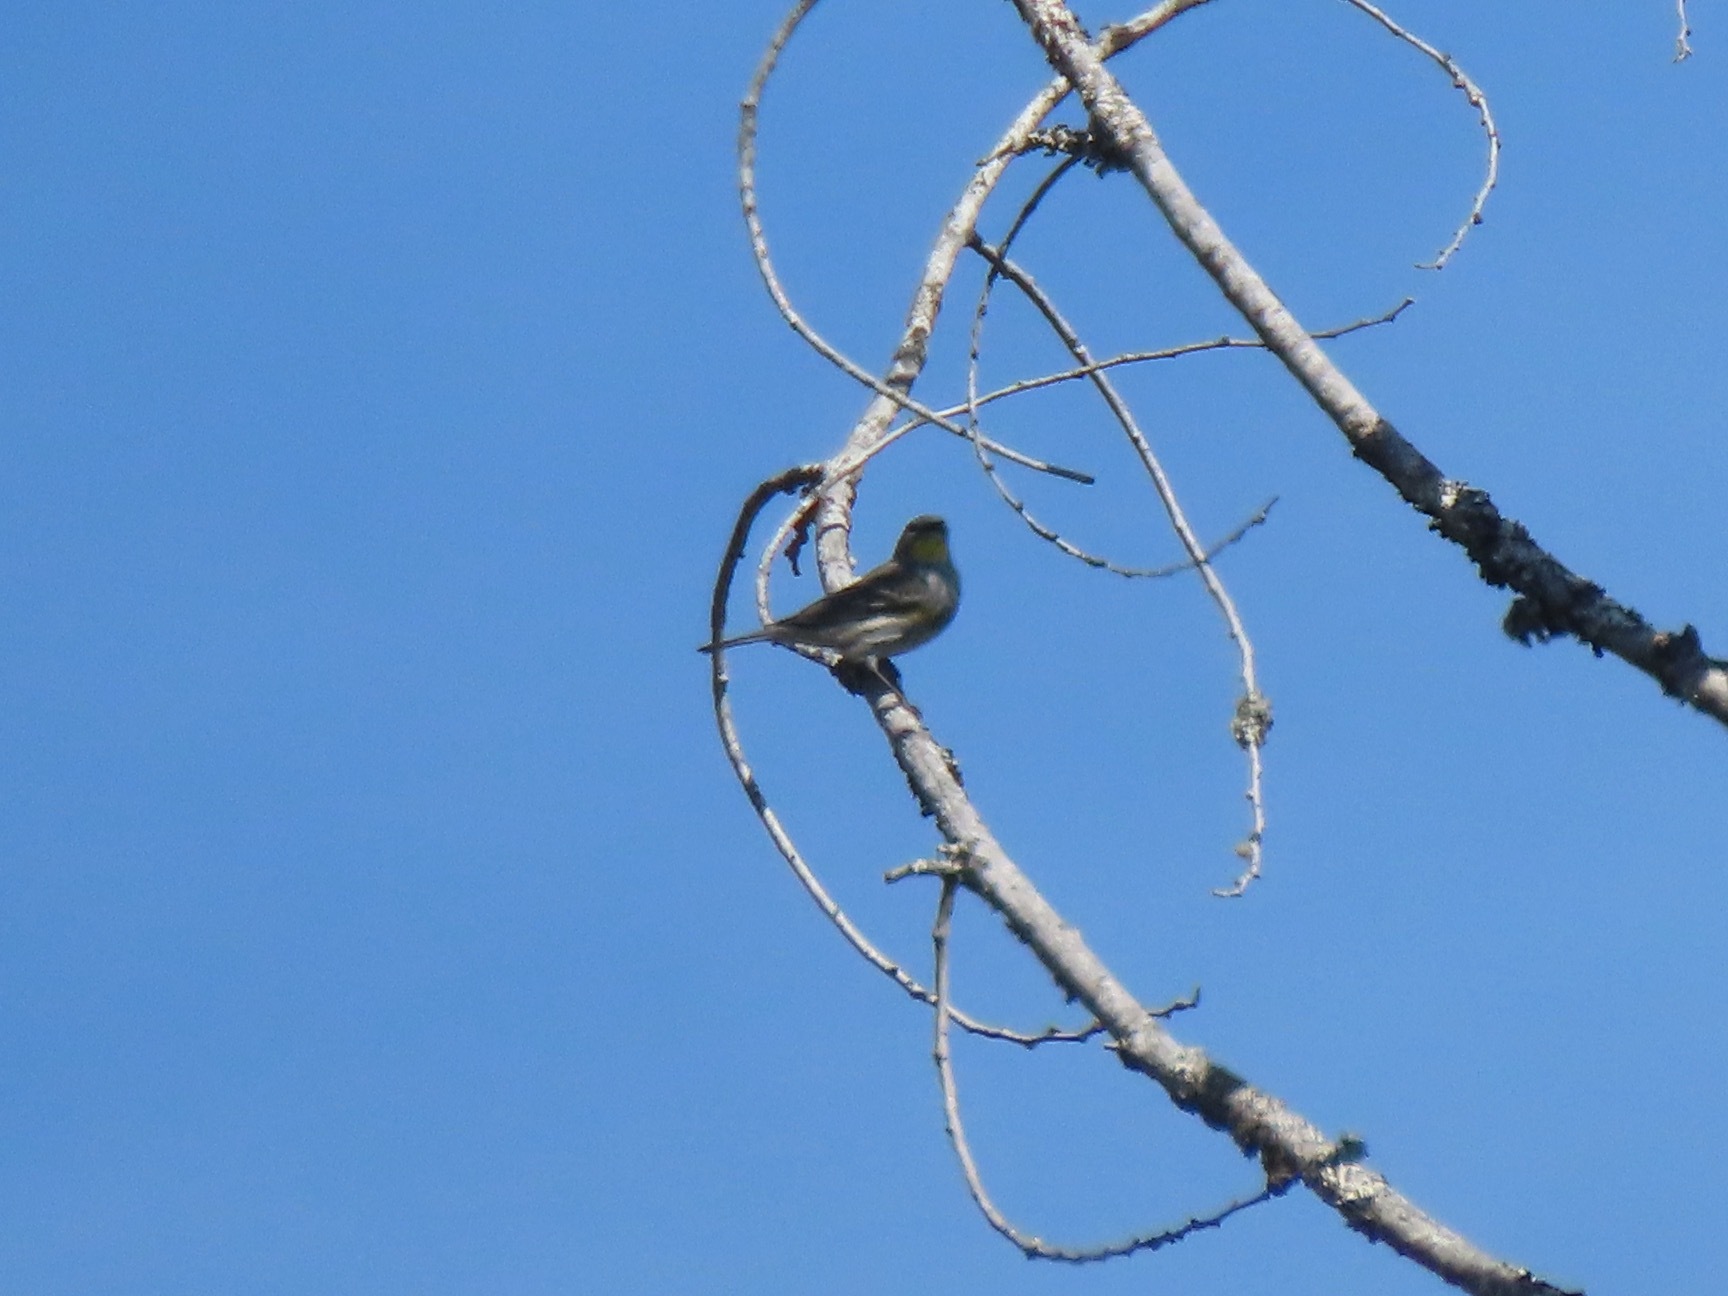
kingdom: Animalia
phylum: Chordata
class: Aves
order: Passeriformes
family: Parulidae
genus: Setophaga
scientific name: Setophaga coronata
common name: Myrtle warbler
